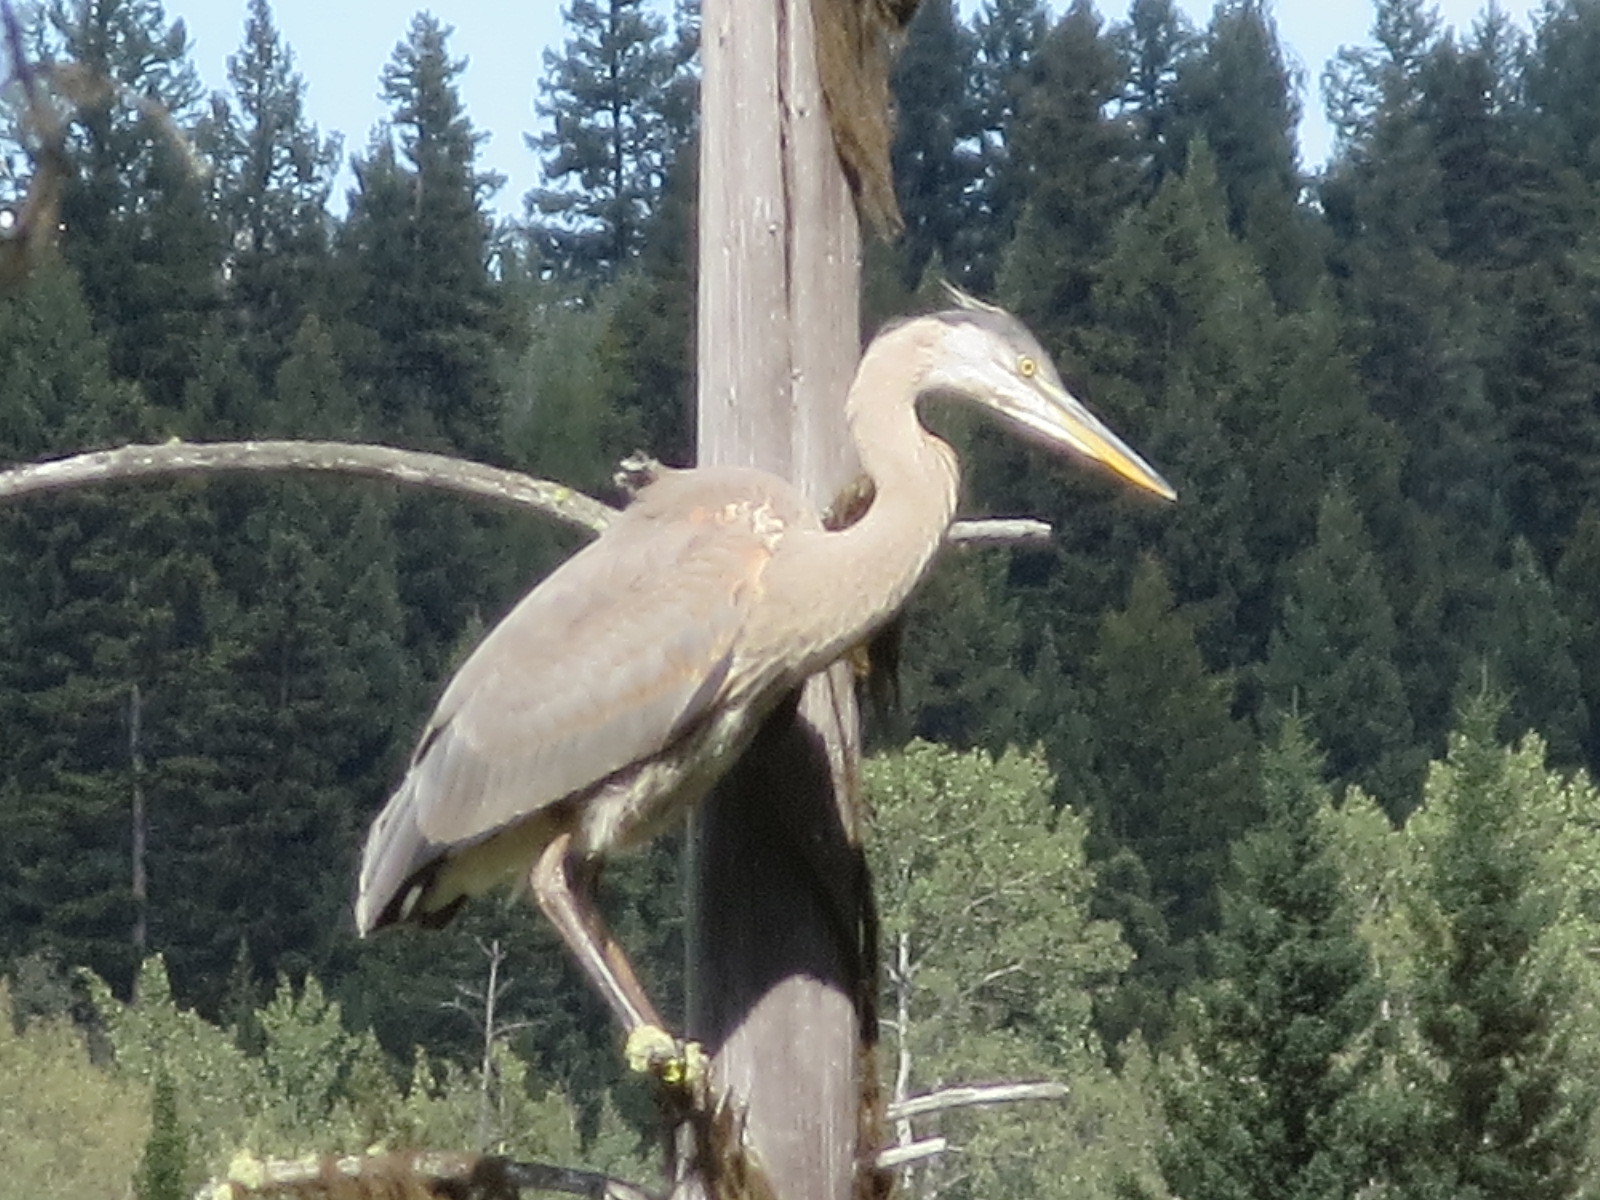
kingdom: Animalia
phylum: Chordata
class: Aves
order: Pelecaniformes
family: Ardeidae
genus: Ardea
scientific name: Ardea herodias
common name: Great blue heron
